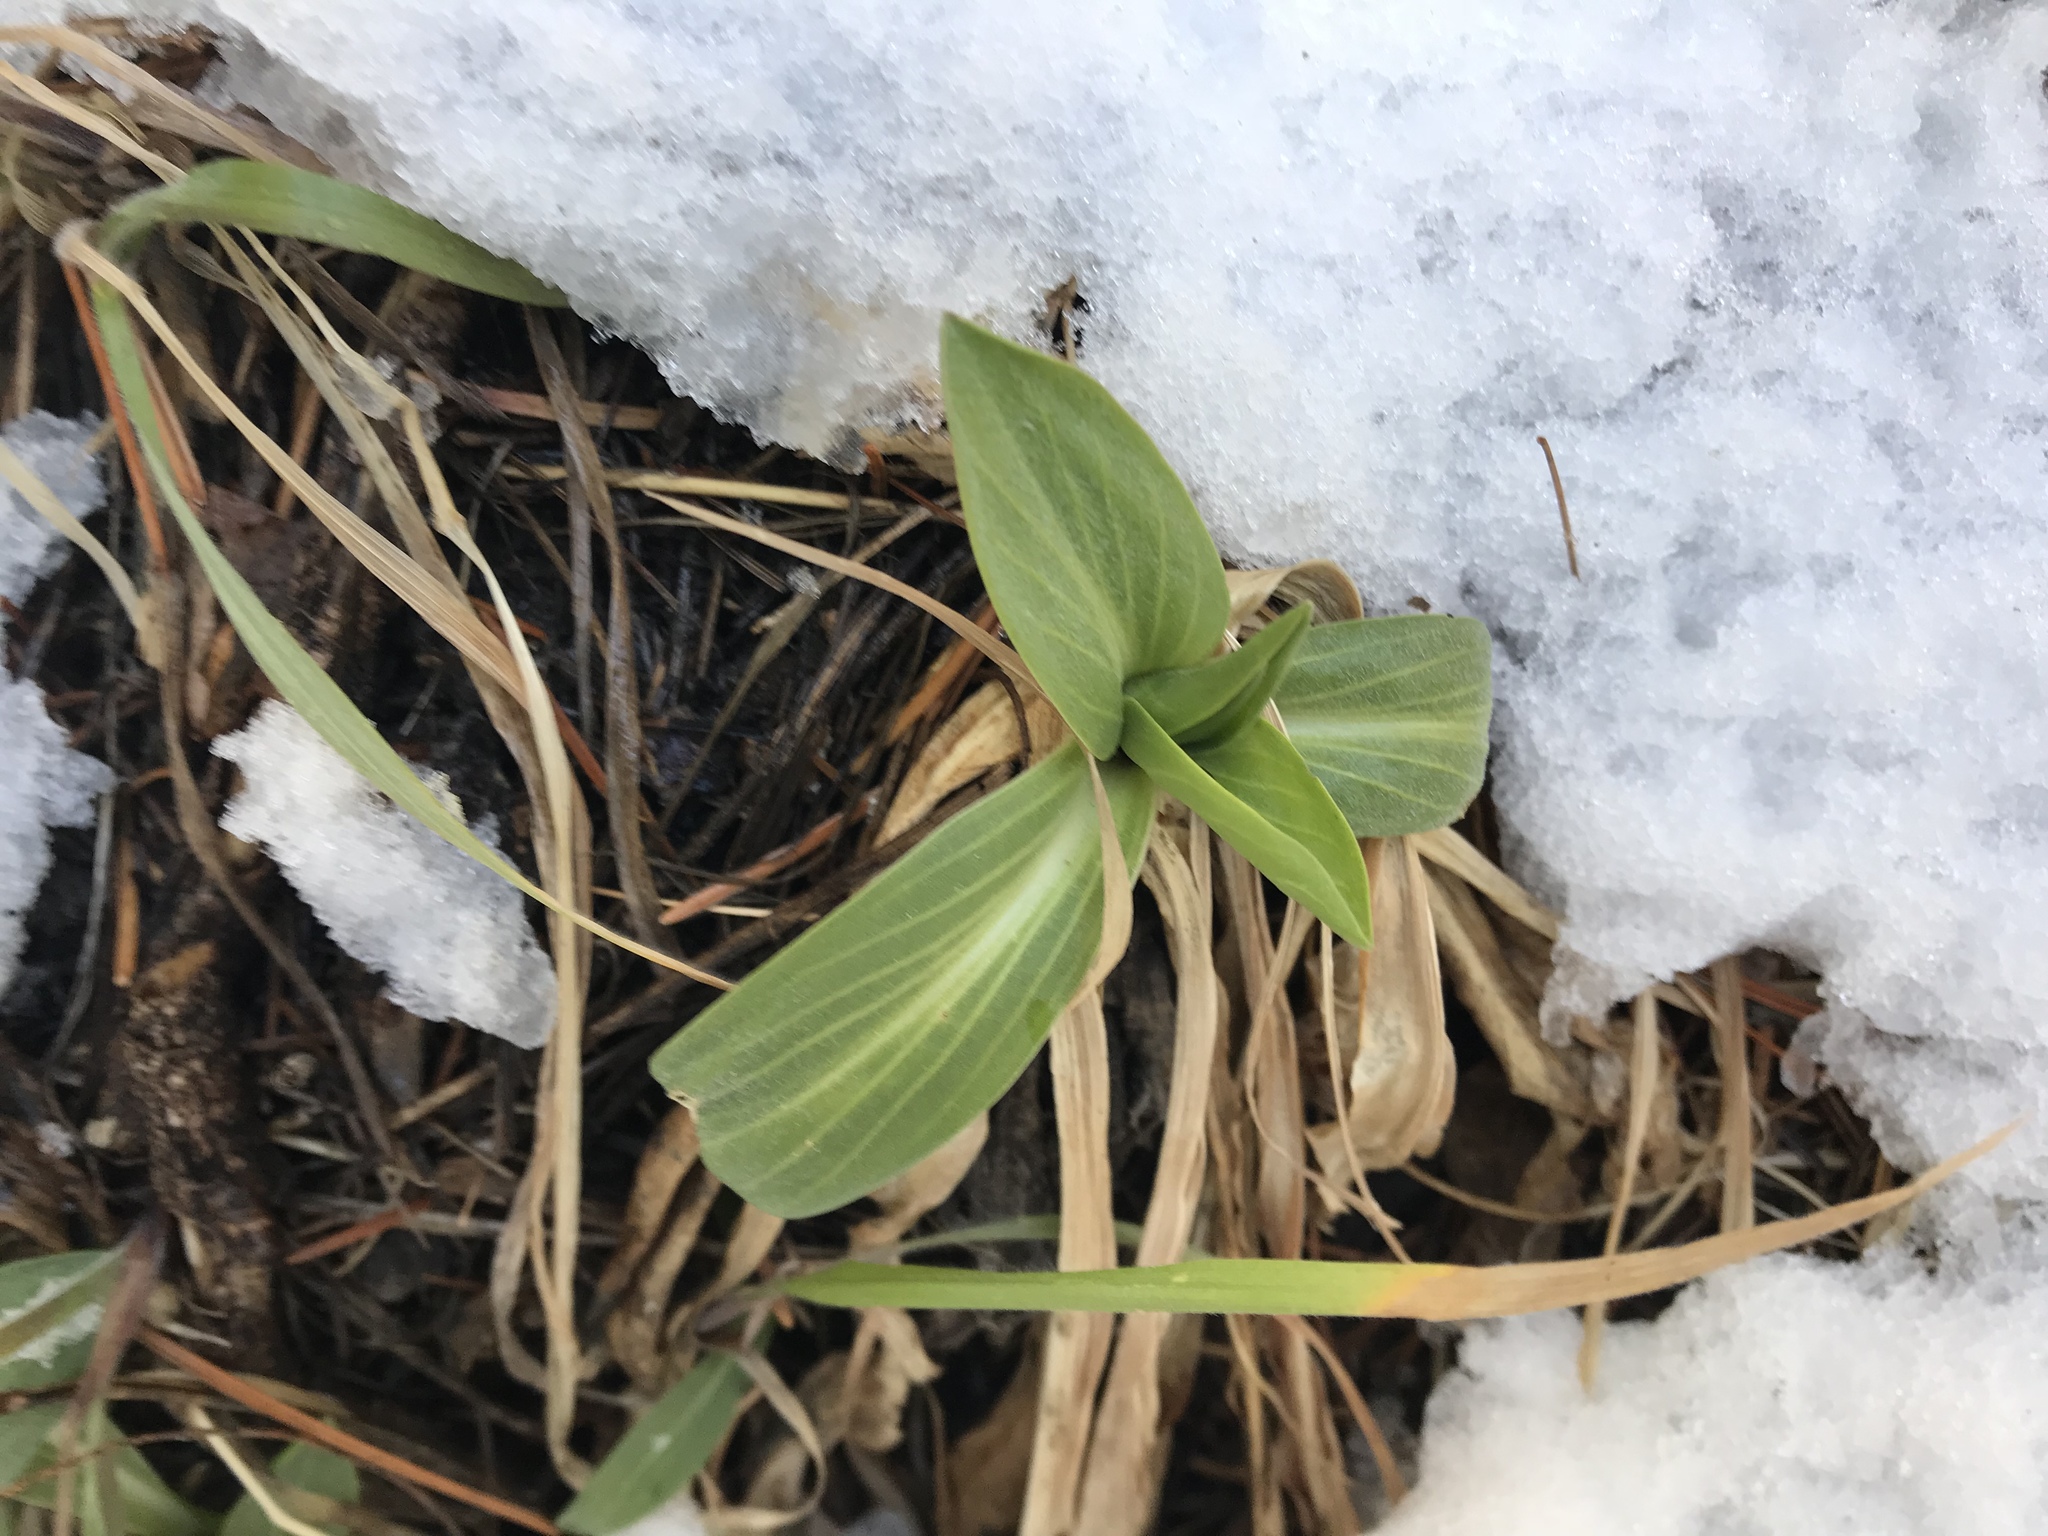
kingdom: Plantae
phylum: Tracheophyta
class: Magnoliopsida
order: Gentianales
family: Gentianaceae
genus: Frasera
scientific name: Frasera speciosa
